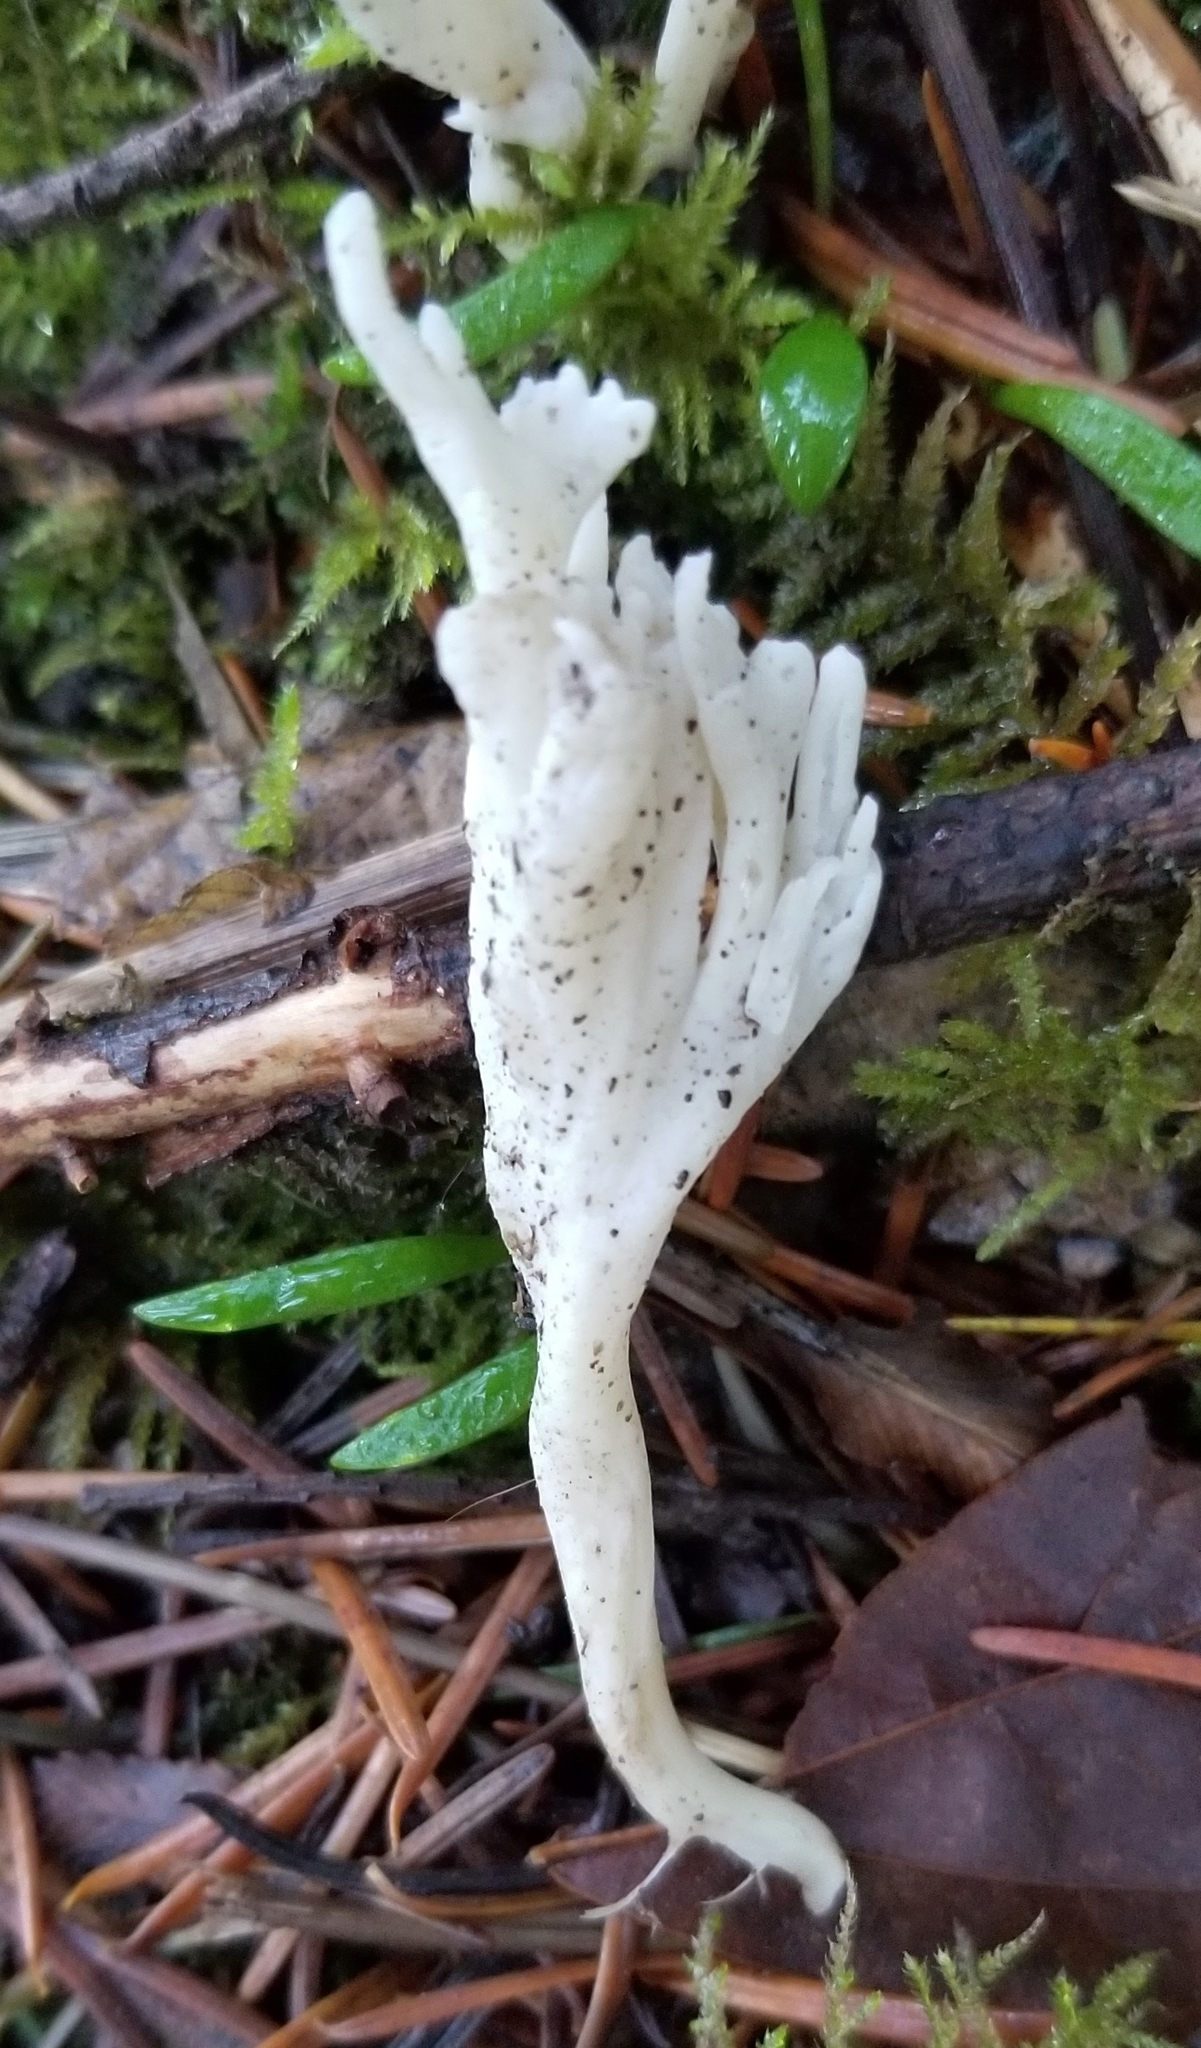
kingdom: Fungi
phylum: Basidiomycota
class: Agaricomycetes
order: Cantharellales
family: Hydnaceae
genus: Clavulina
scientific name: Clavulina rugosa
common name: Wrinkled club
